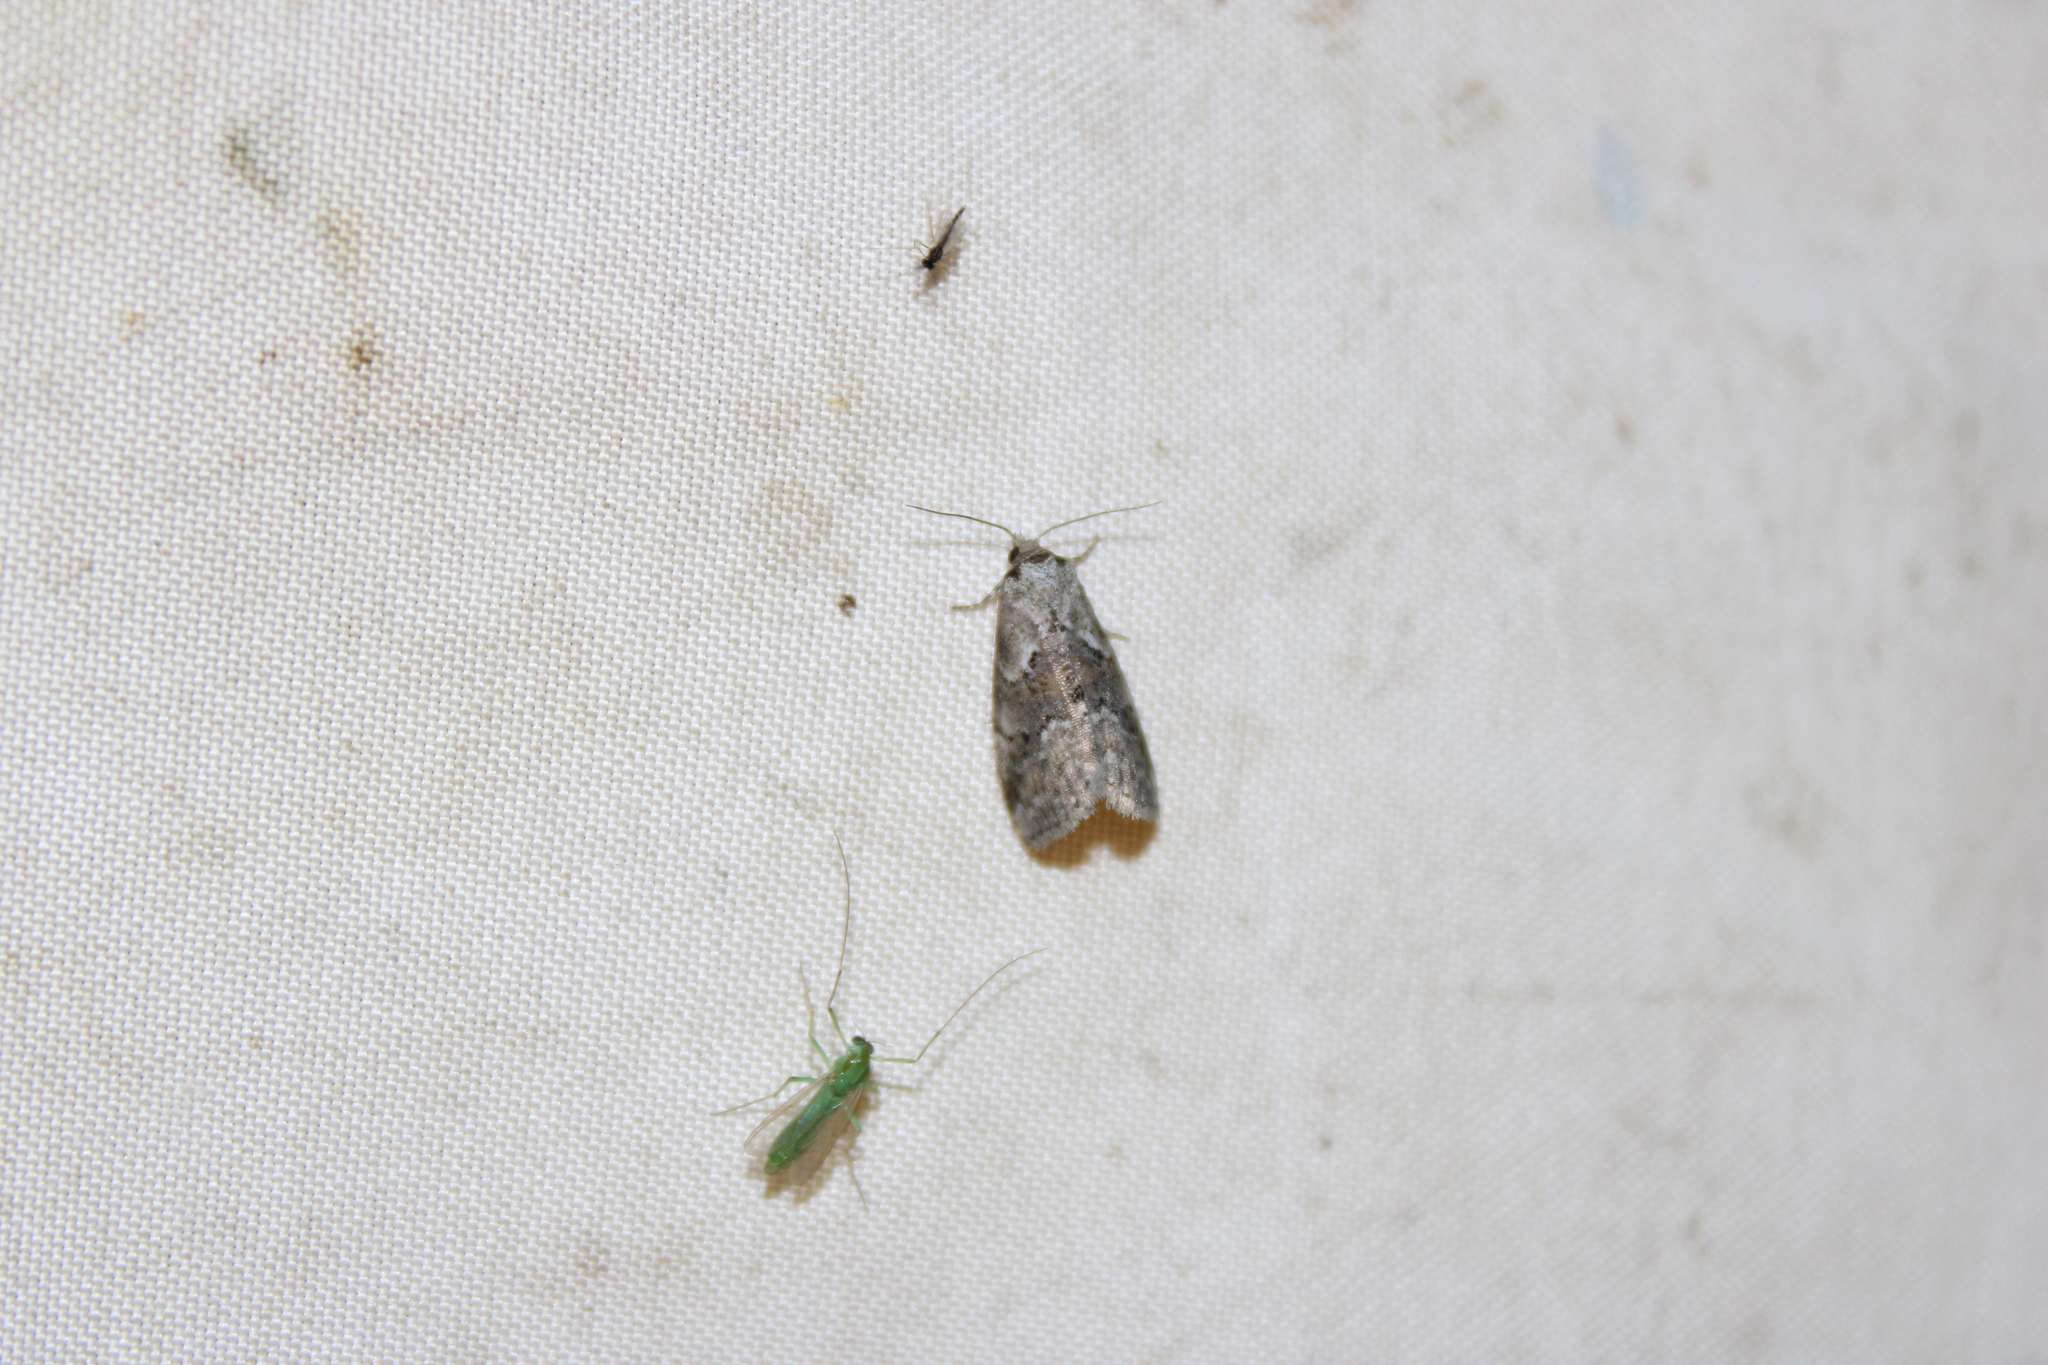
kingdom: Animalia
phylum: Arthropoda
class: Insecta
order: Lepidoptera
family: Erebidae
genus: Hyperstrotia
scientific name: Hyperstrotia nana
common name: White-lined graylet
